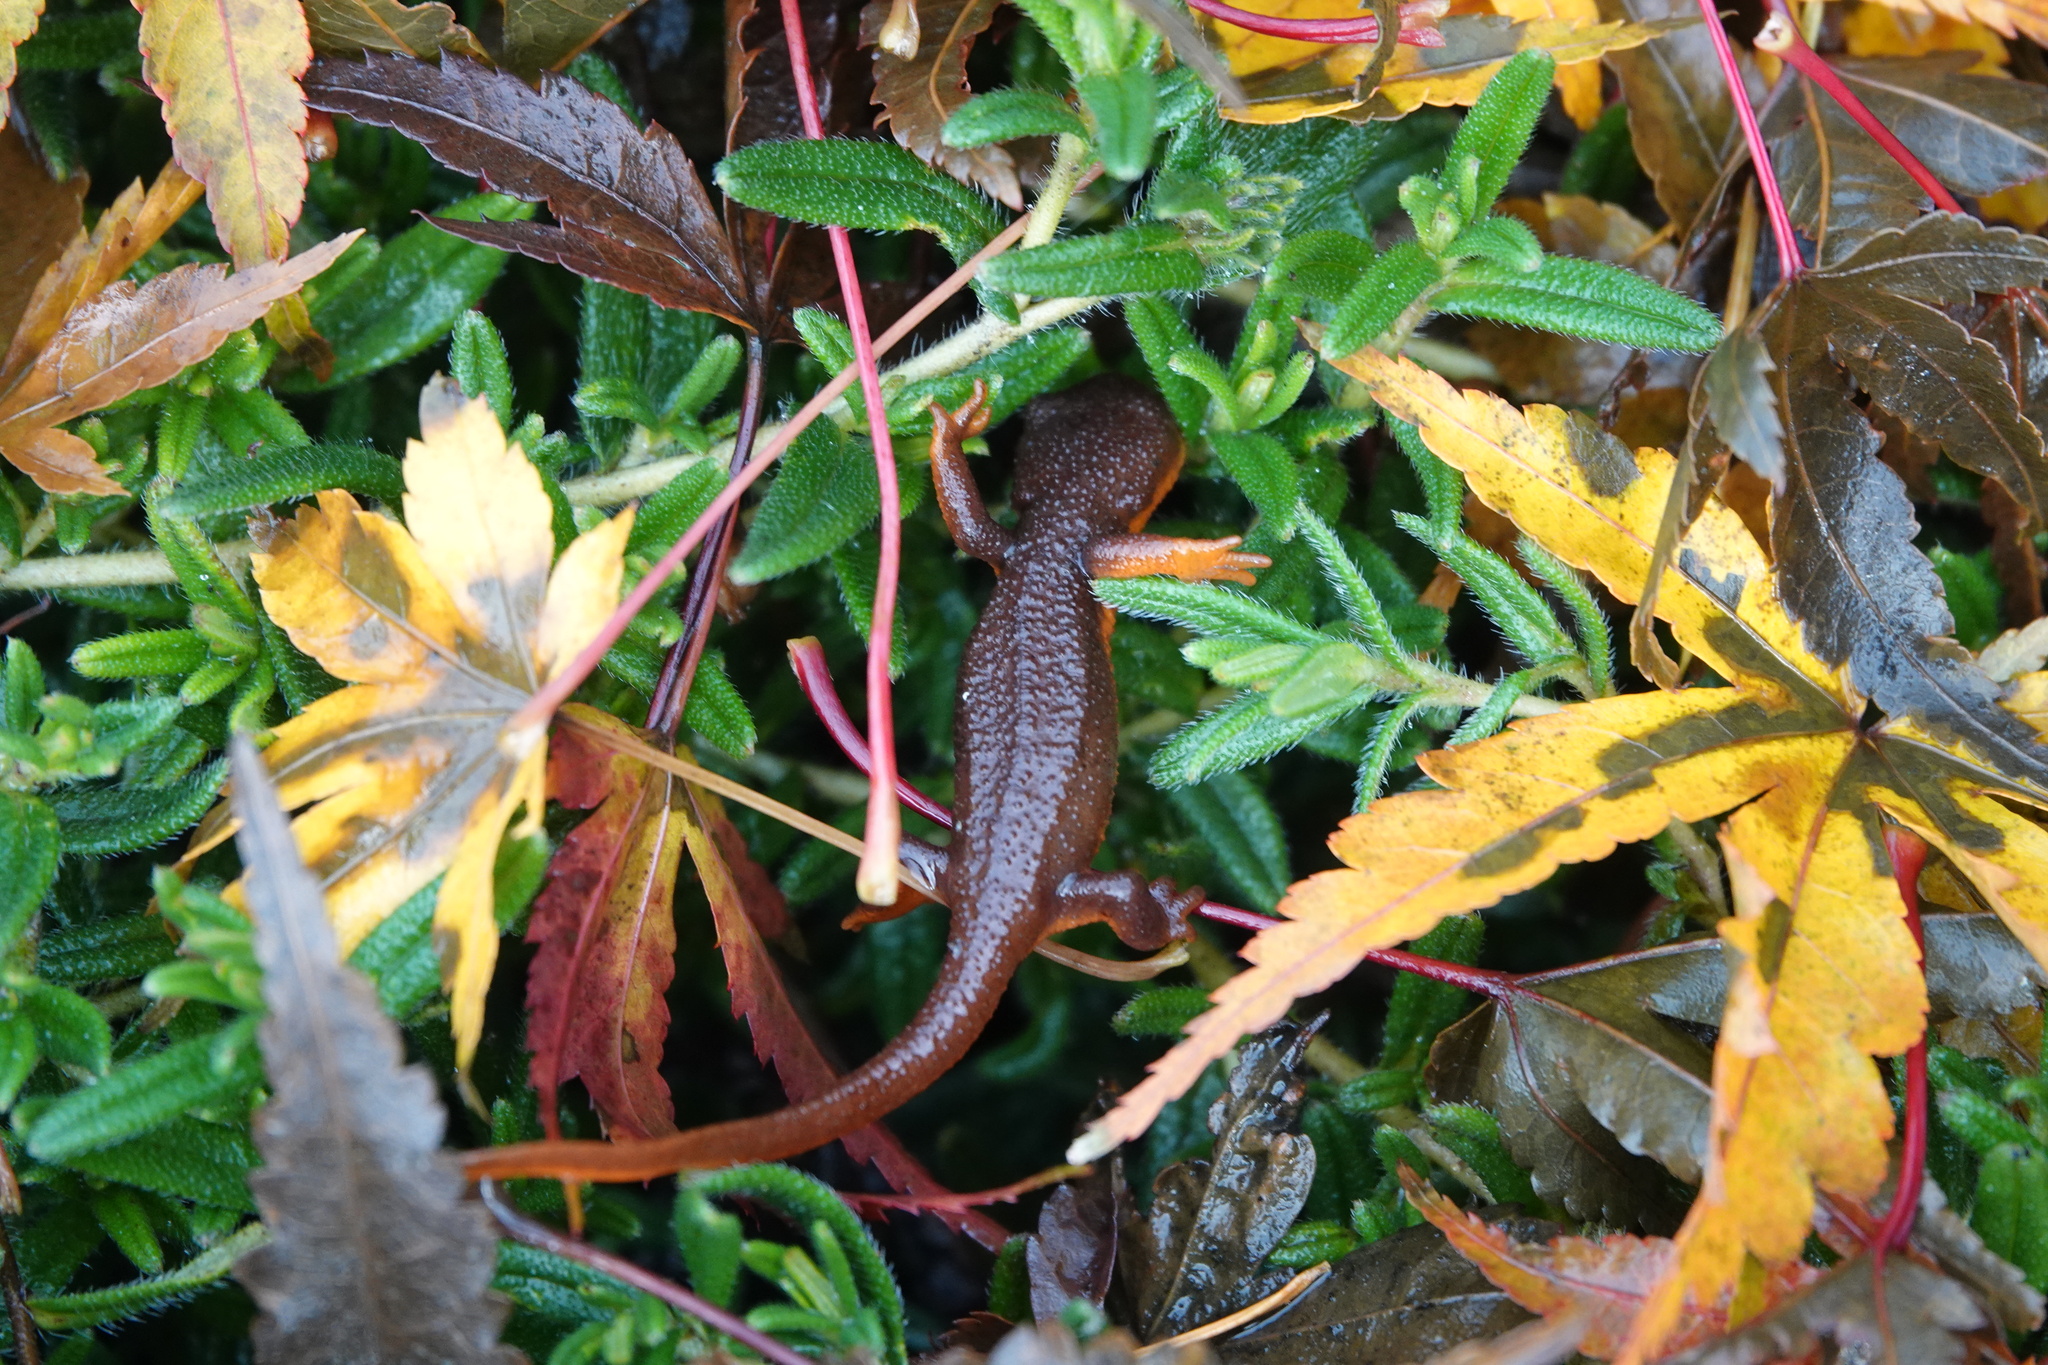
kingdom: Animalia
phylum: Chordata
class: Amphibia
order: Caudata
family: Salamandridae
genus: Taricha
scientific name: Taricha granulosa
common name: Roughskin newt
